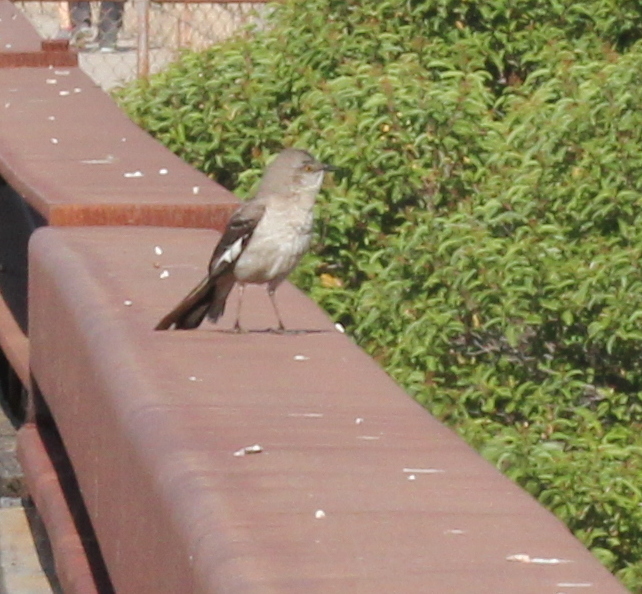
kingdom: Animalia
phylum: Chordata
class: Aves
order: Passeriformes
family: Mimidae
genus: Mimus
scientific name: Mimus polyglottos
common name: Northern mockingbird
